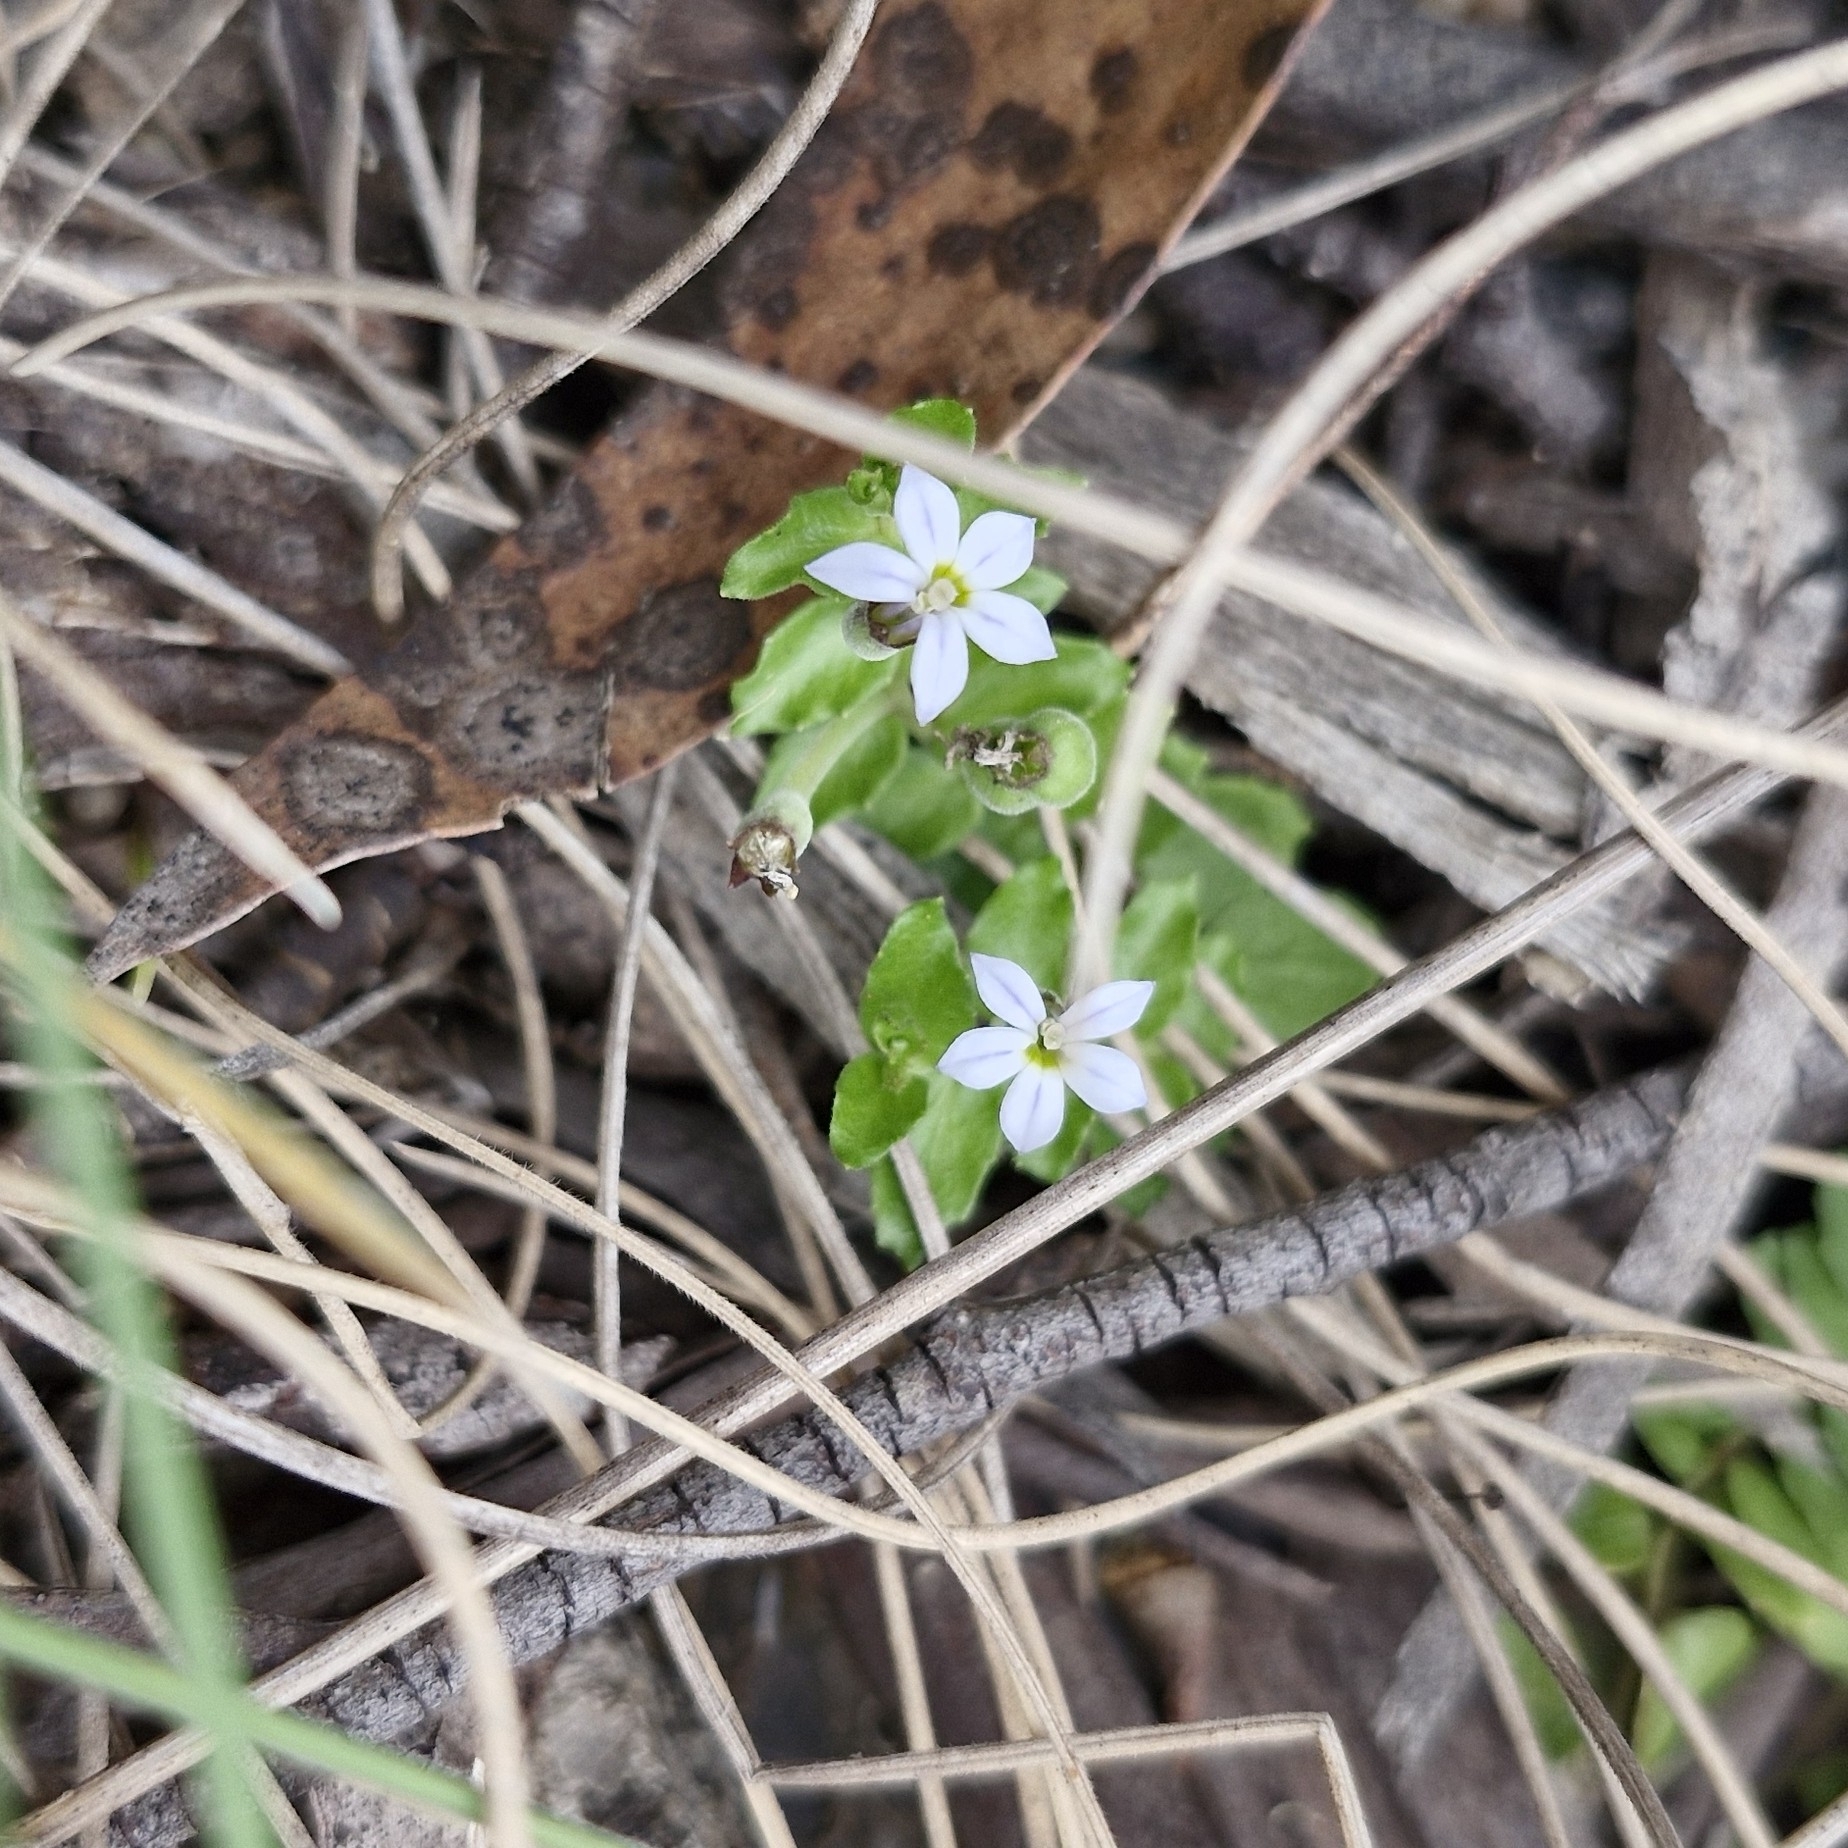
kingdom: Plantae
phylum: Tracheophyta
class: Magnoliopsida
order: Asterales
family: Campanulaceae
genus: Lobelia
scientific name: Lobelia pedunculata
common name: Matted pratia
